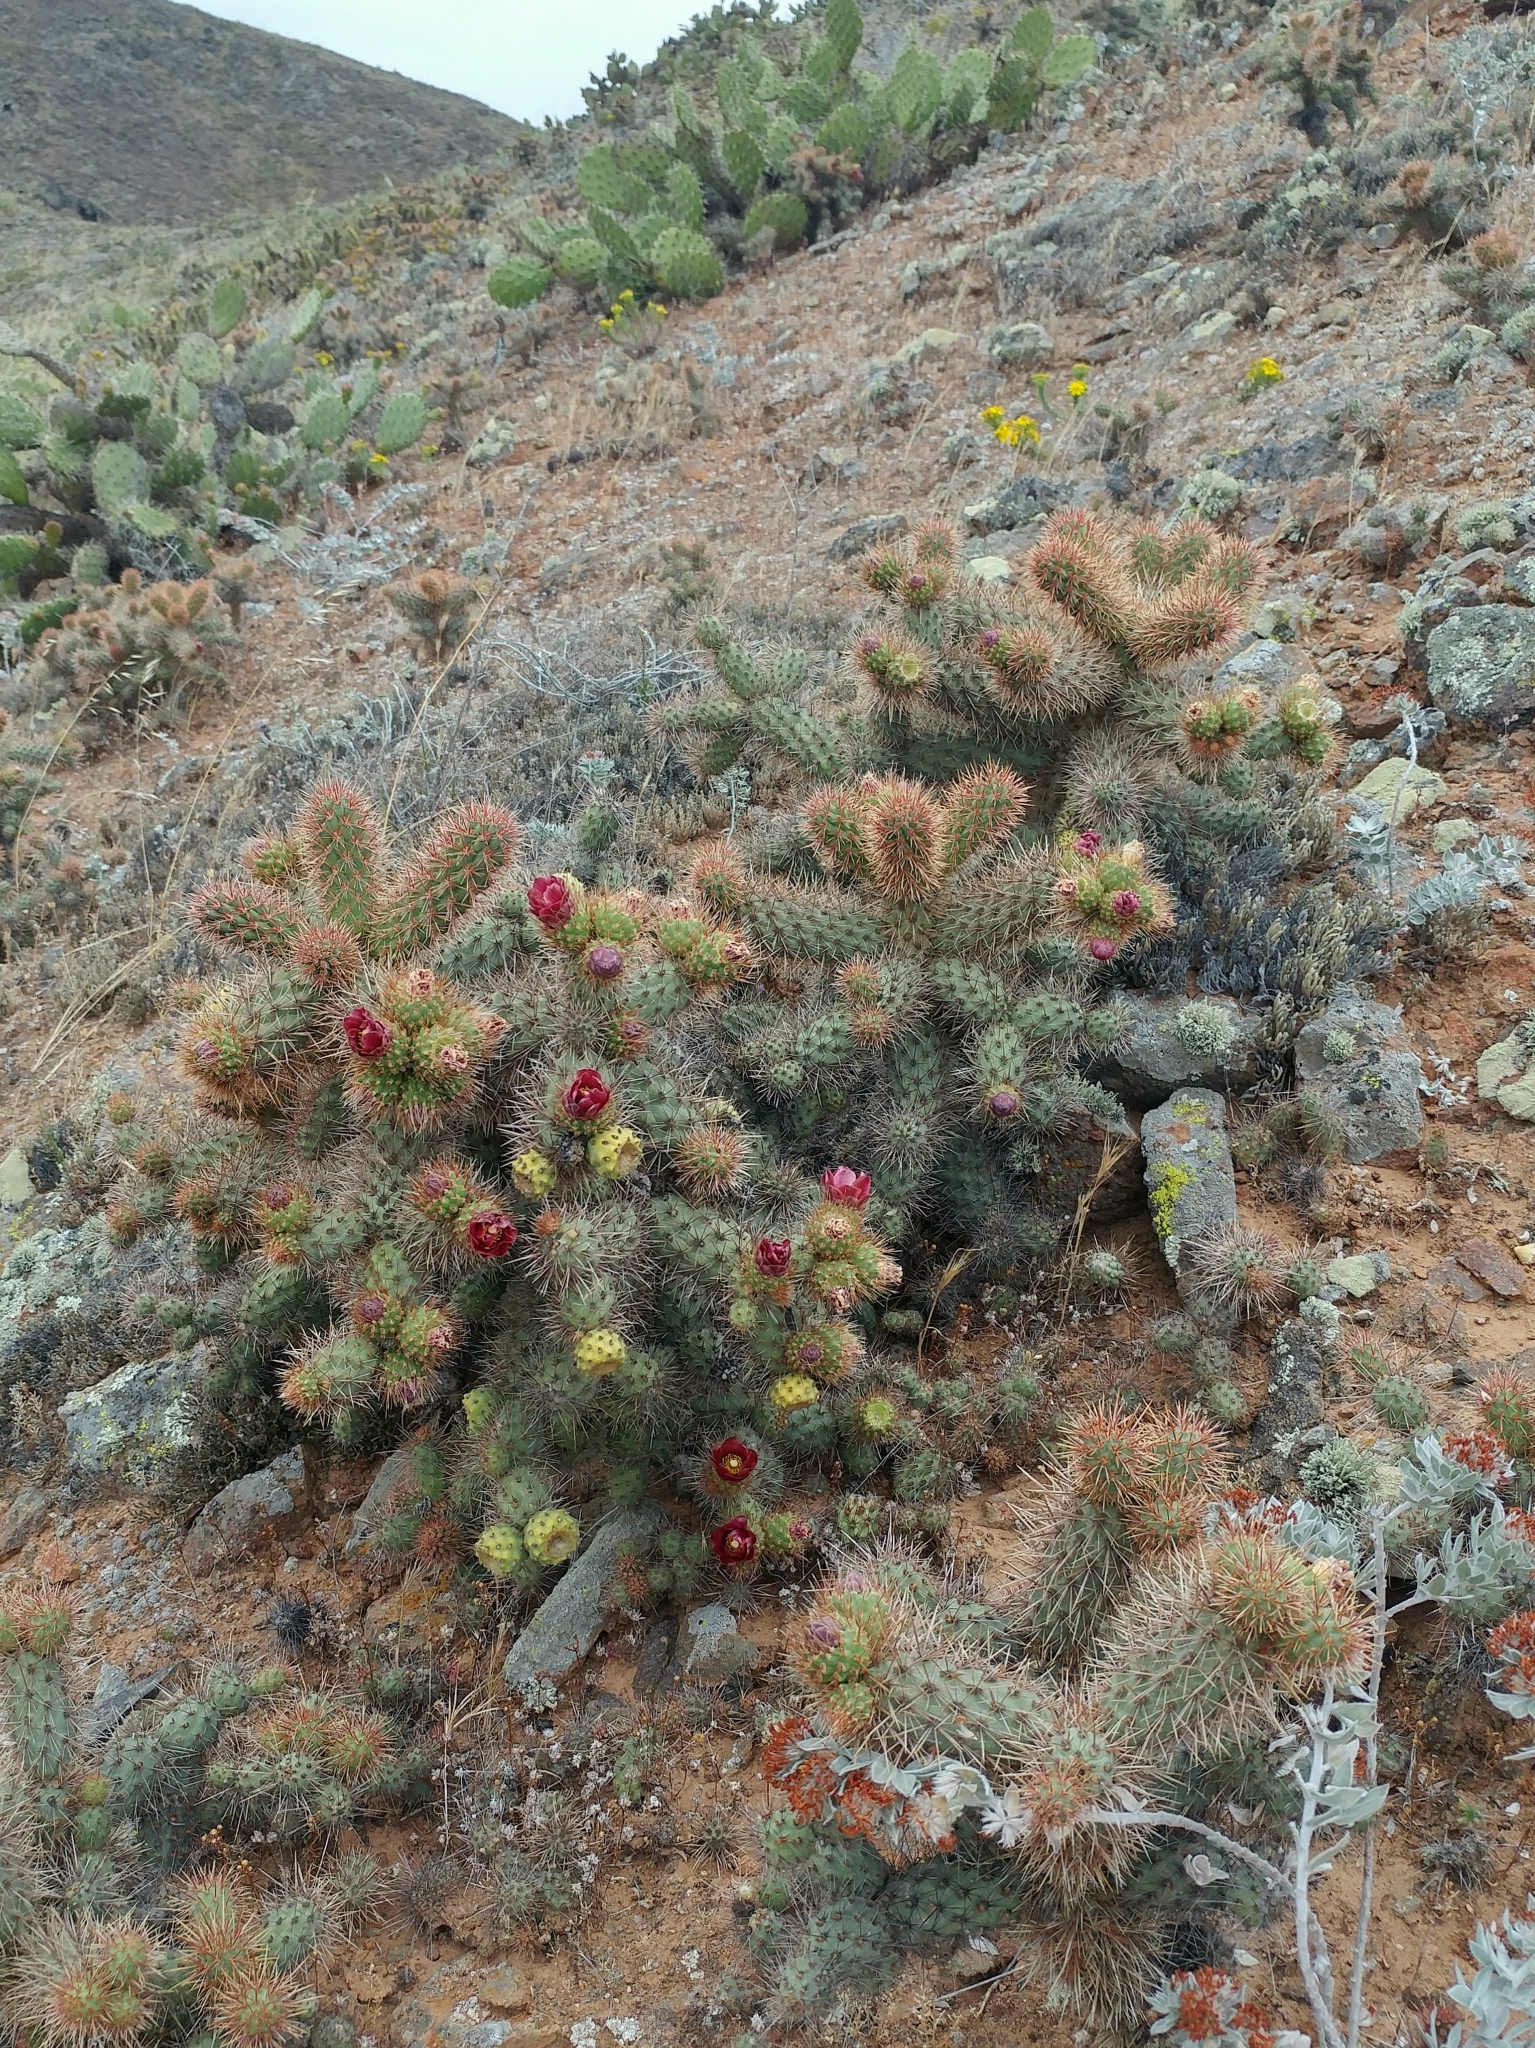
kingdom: Plantae
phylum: Tracheophyta
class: Magnoliopsida
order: Caryophyllales
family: Cactaceae
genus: Cylindropuntia
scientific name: Cylindropuntia prolifera
